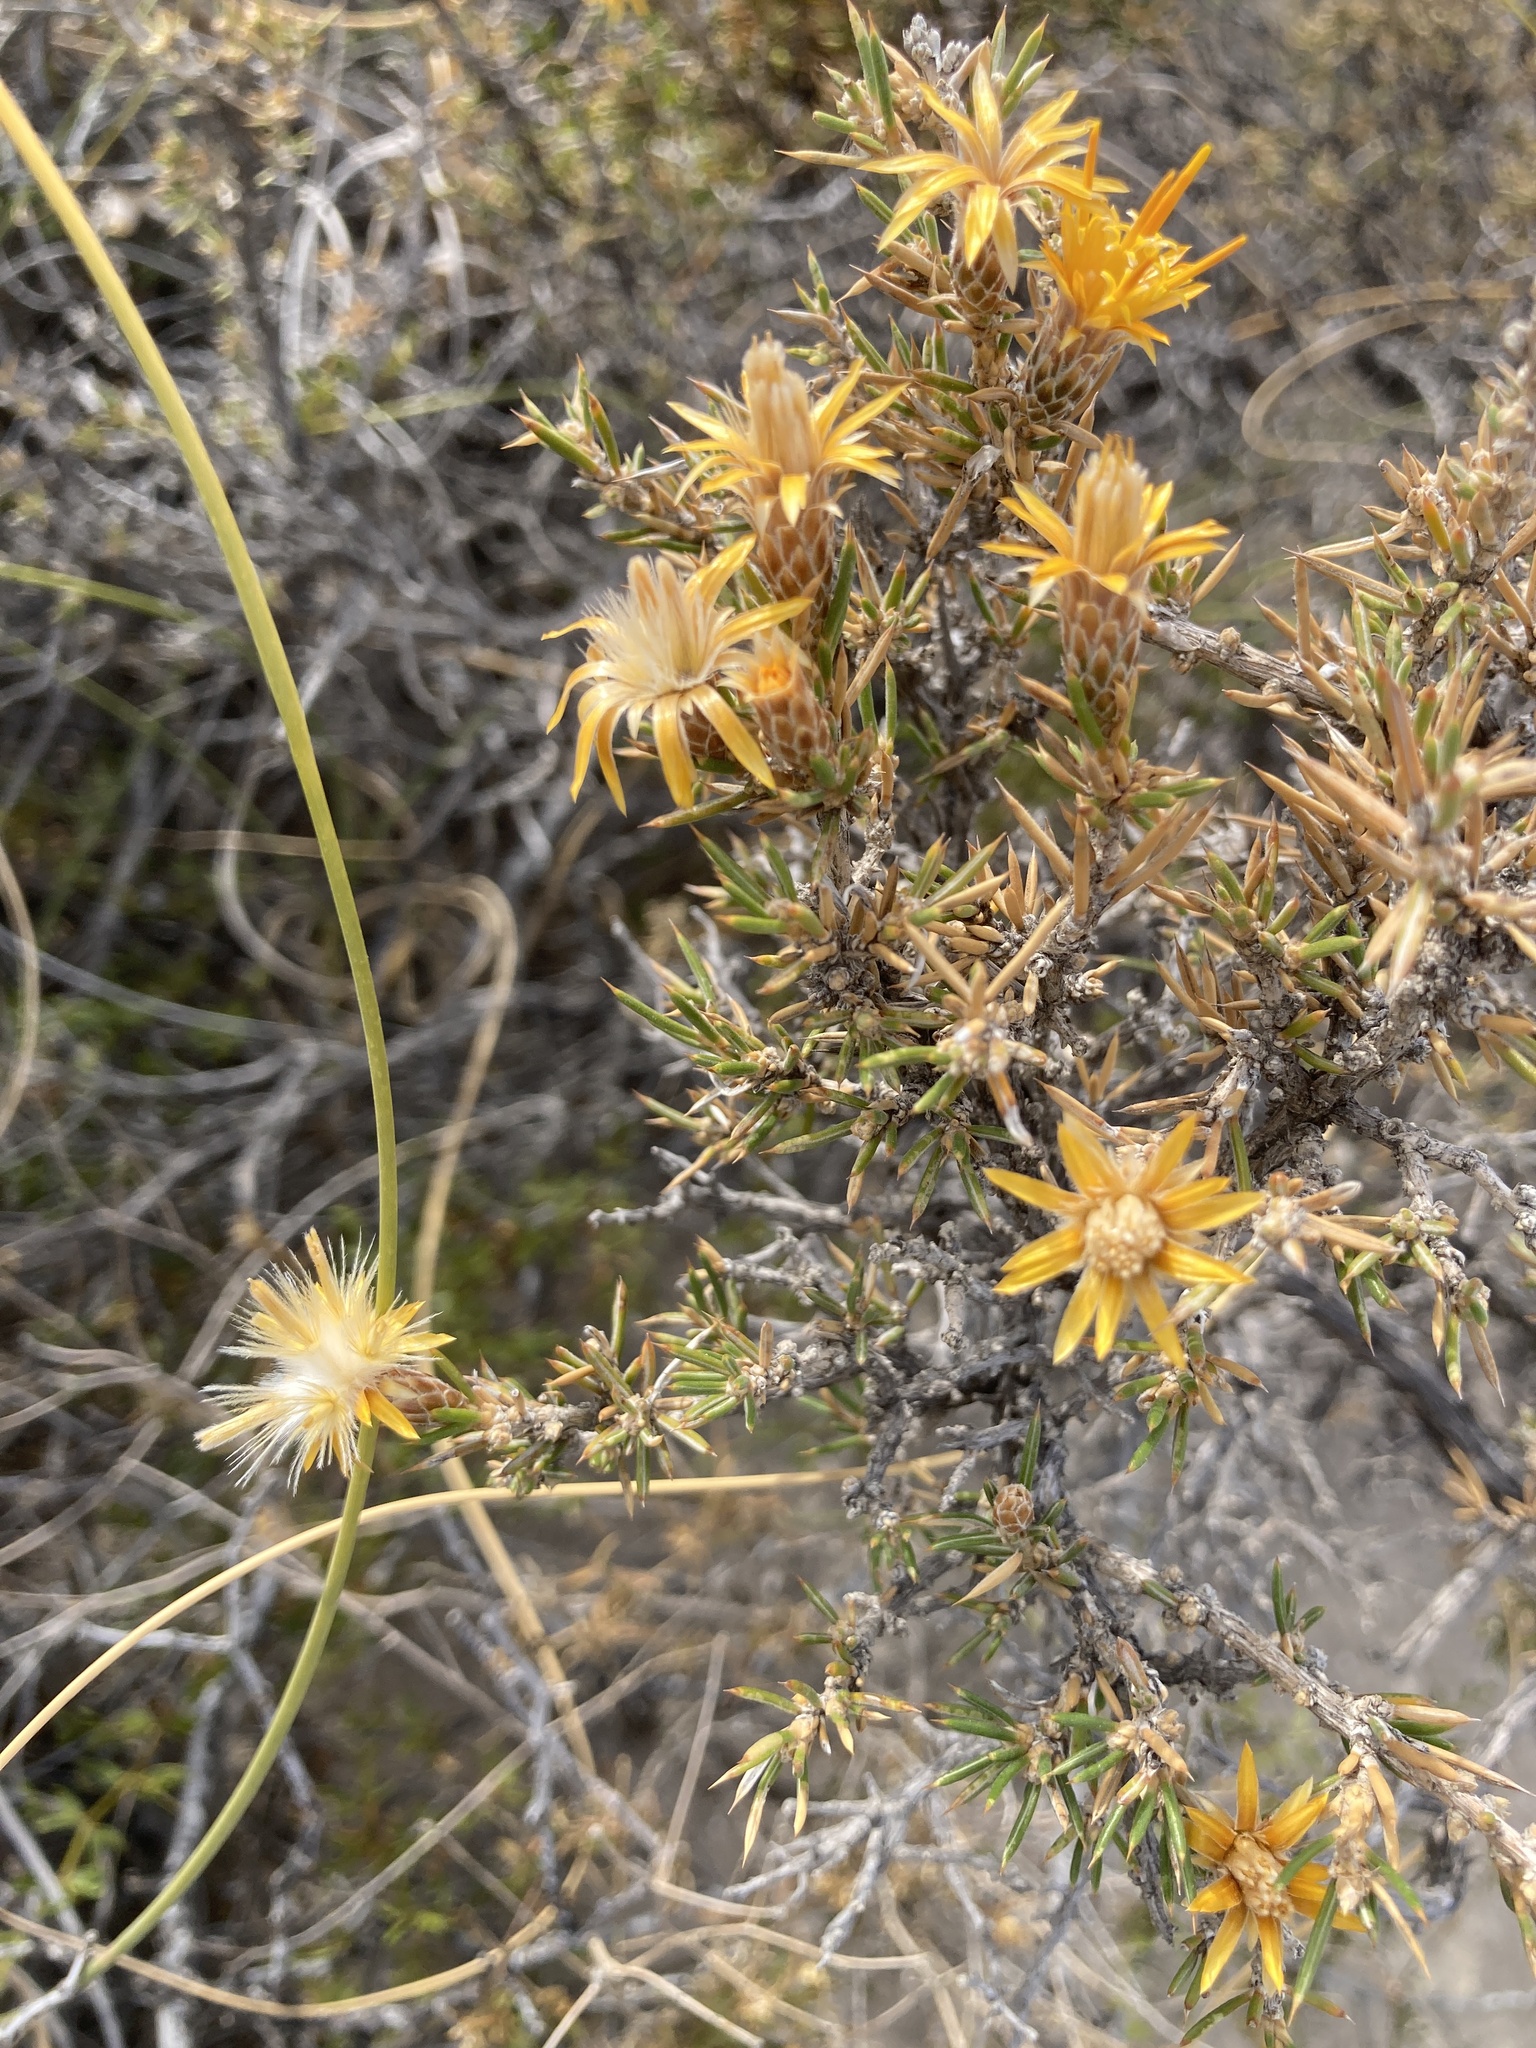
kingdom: Plantae
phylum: Tracheophyta
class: Magnoliopsida
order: Asterales
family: Asteraceae
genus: Chuquiraga
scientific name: Chuquiraga erinacea
